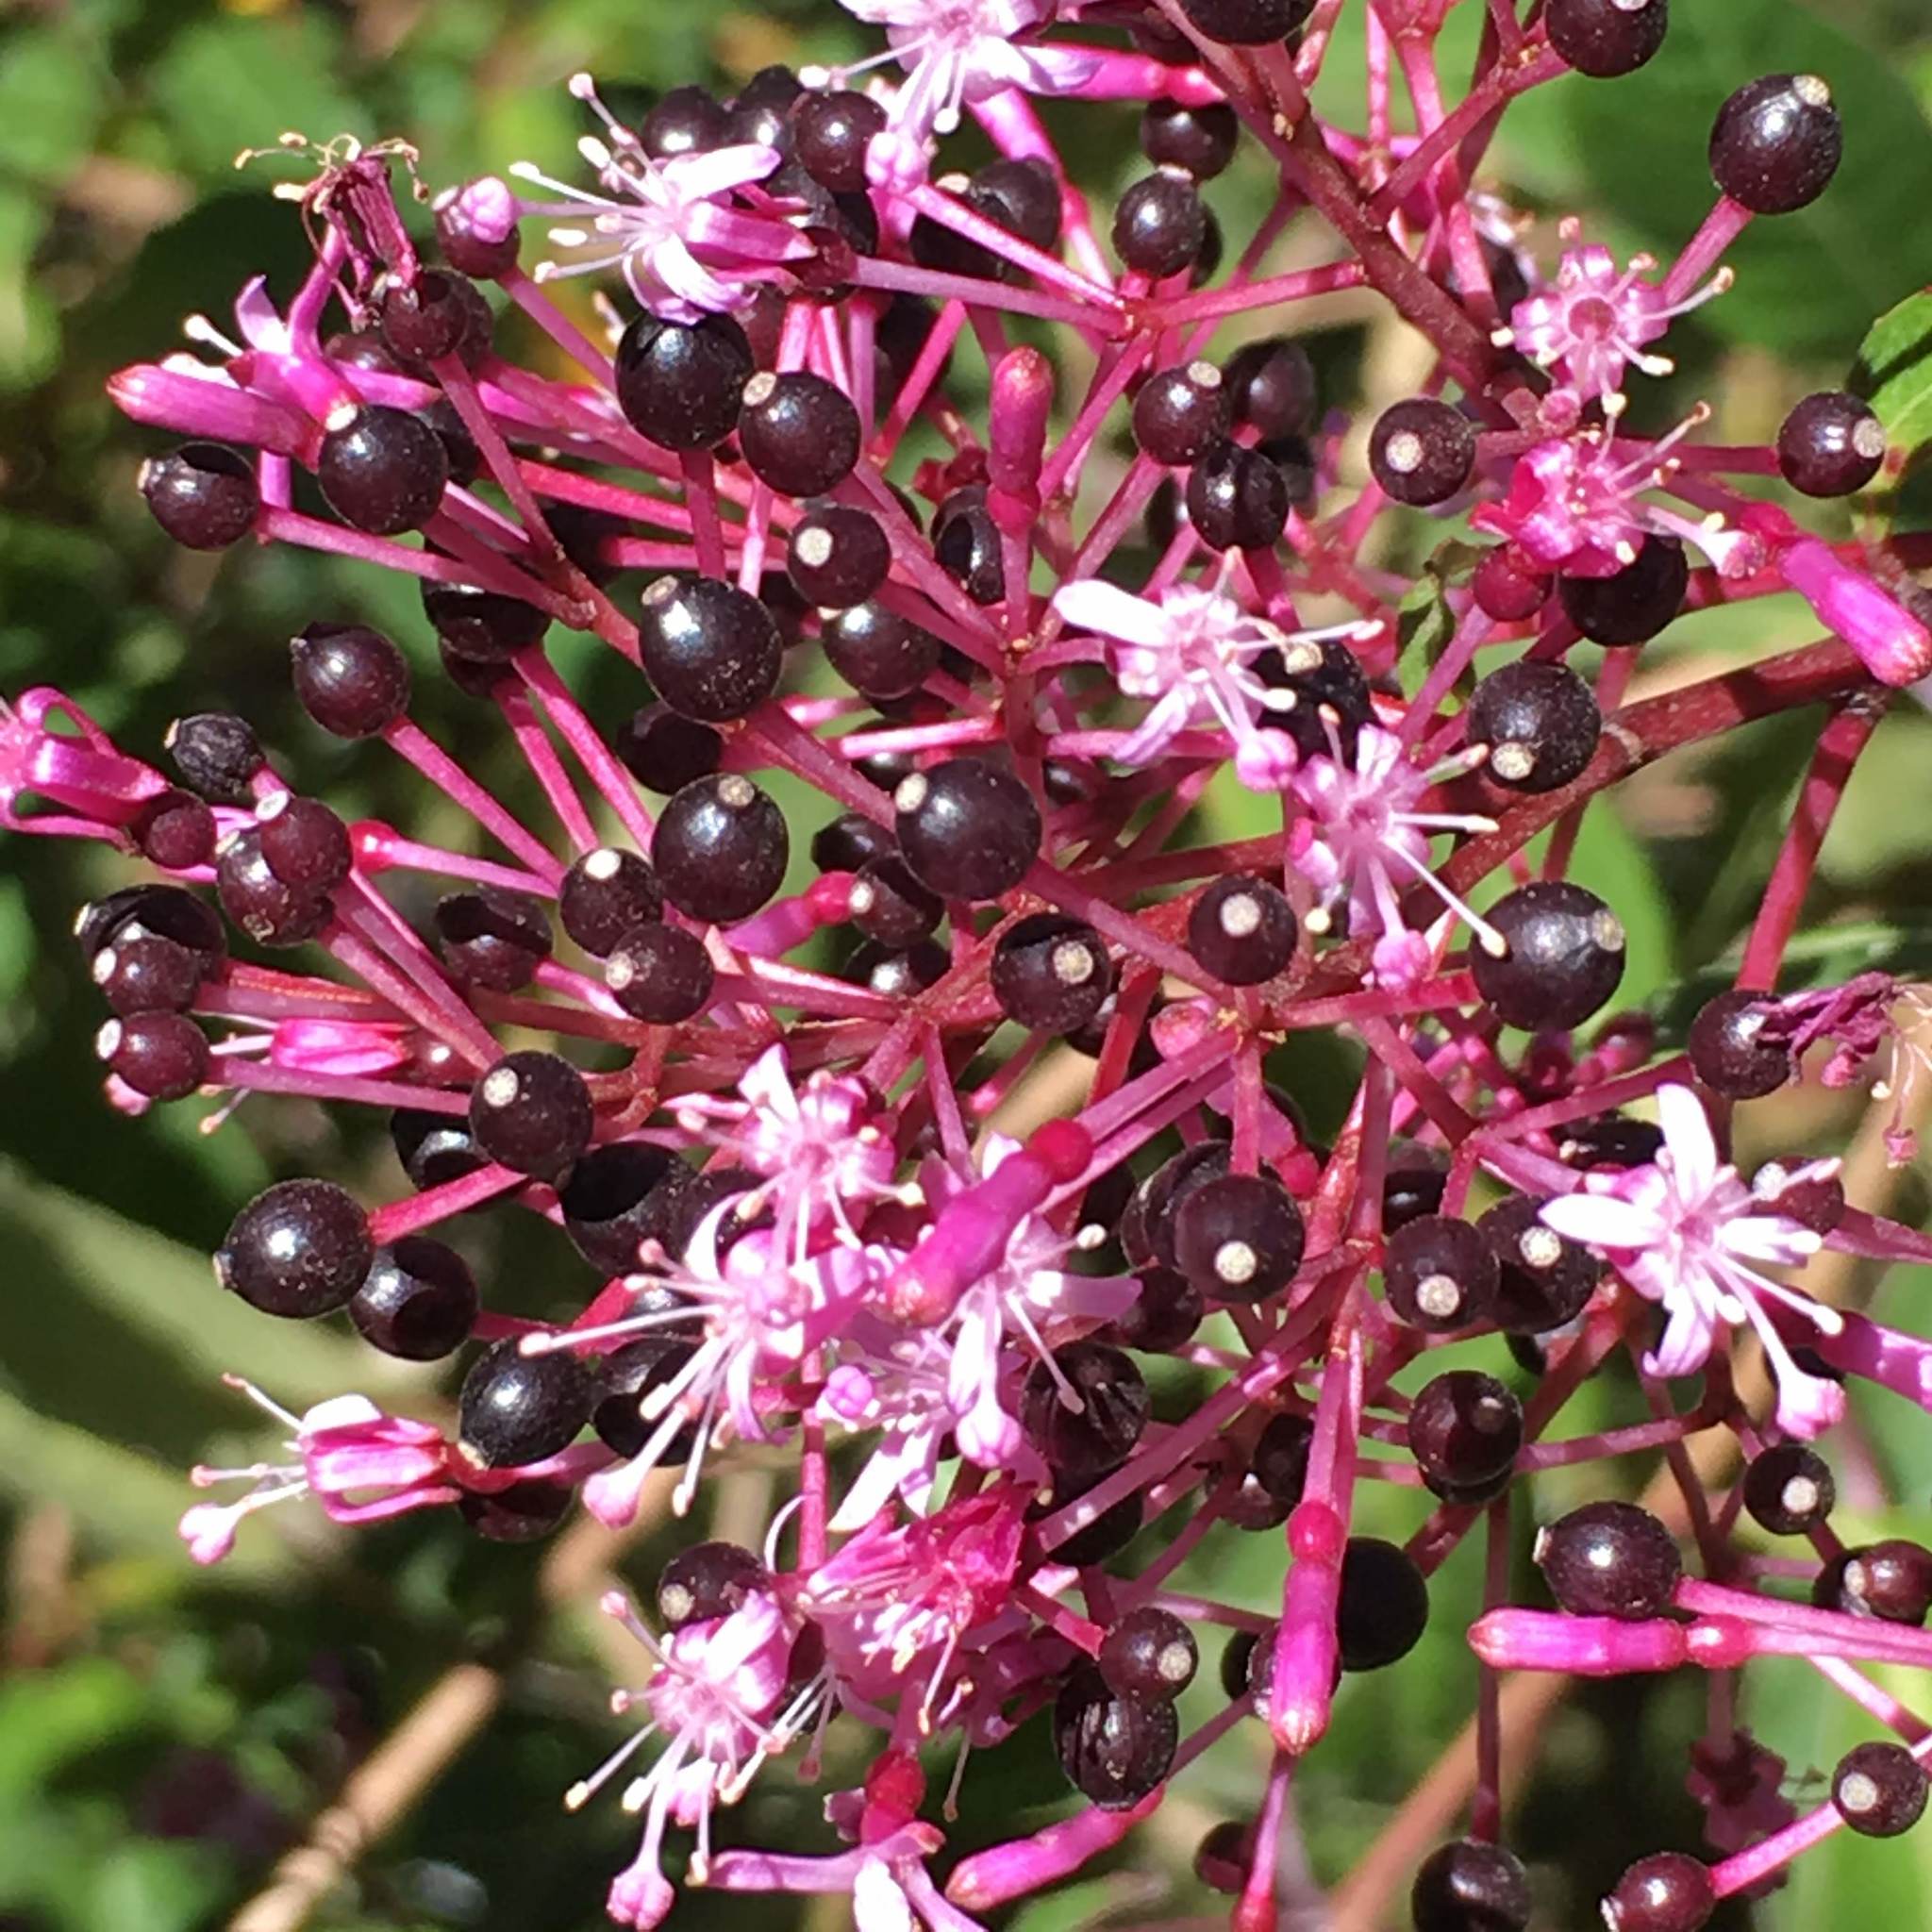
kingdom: Plantae
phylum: Tracheophyta
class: Magnoliopsida
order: Myrtales
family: Onagraceae
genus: Fuchsia
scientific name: Fuchsia paniculata
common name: Shrubby fuchsia
